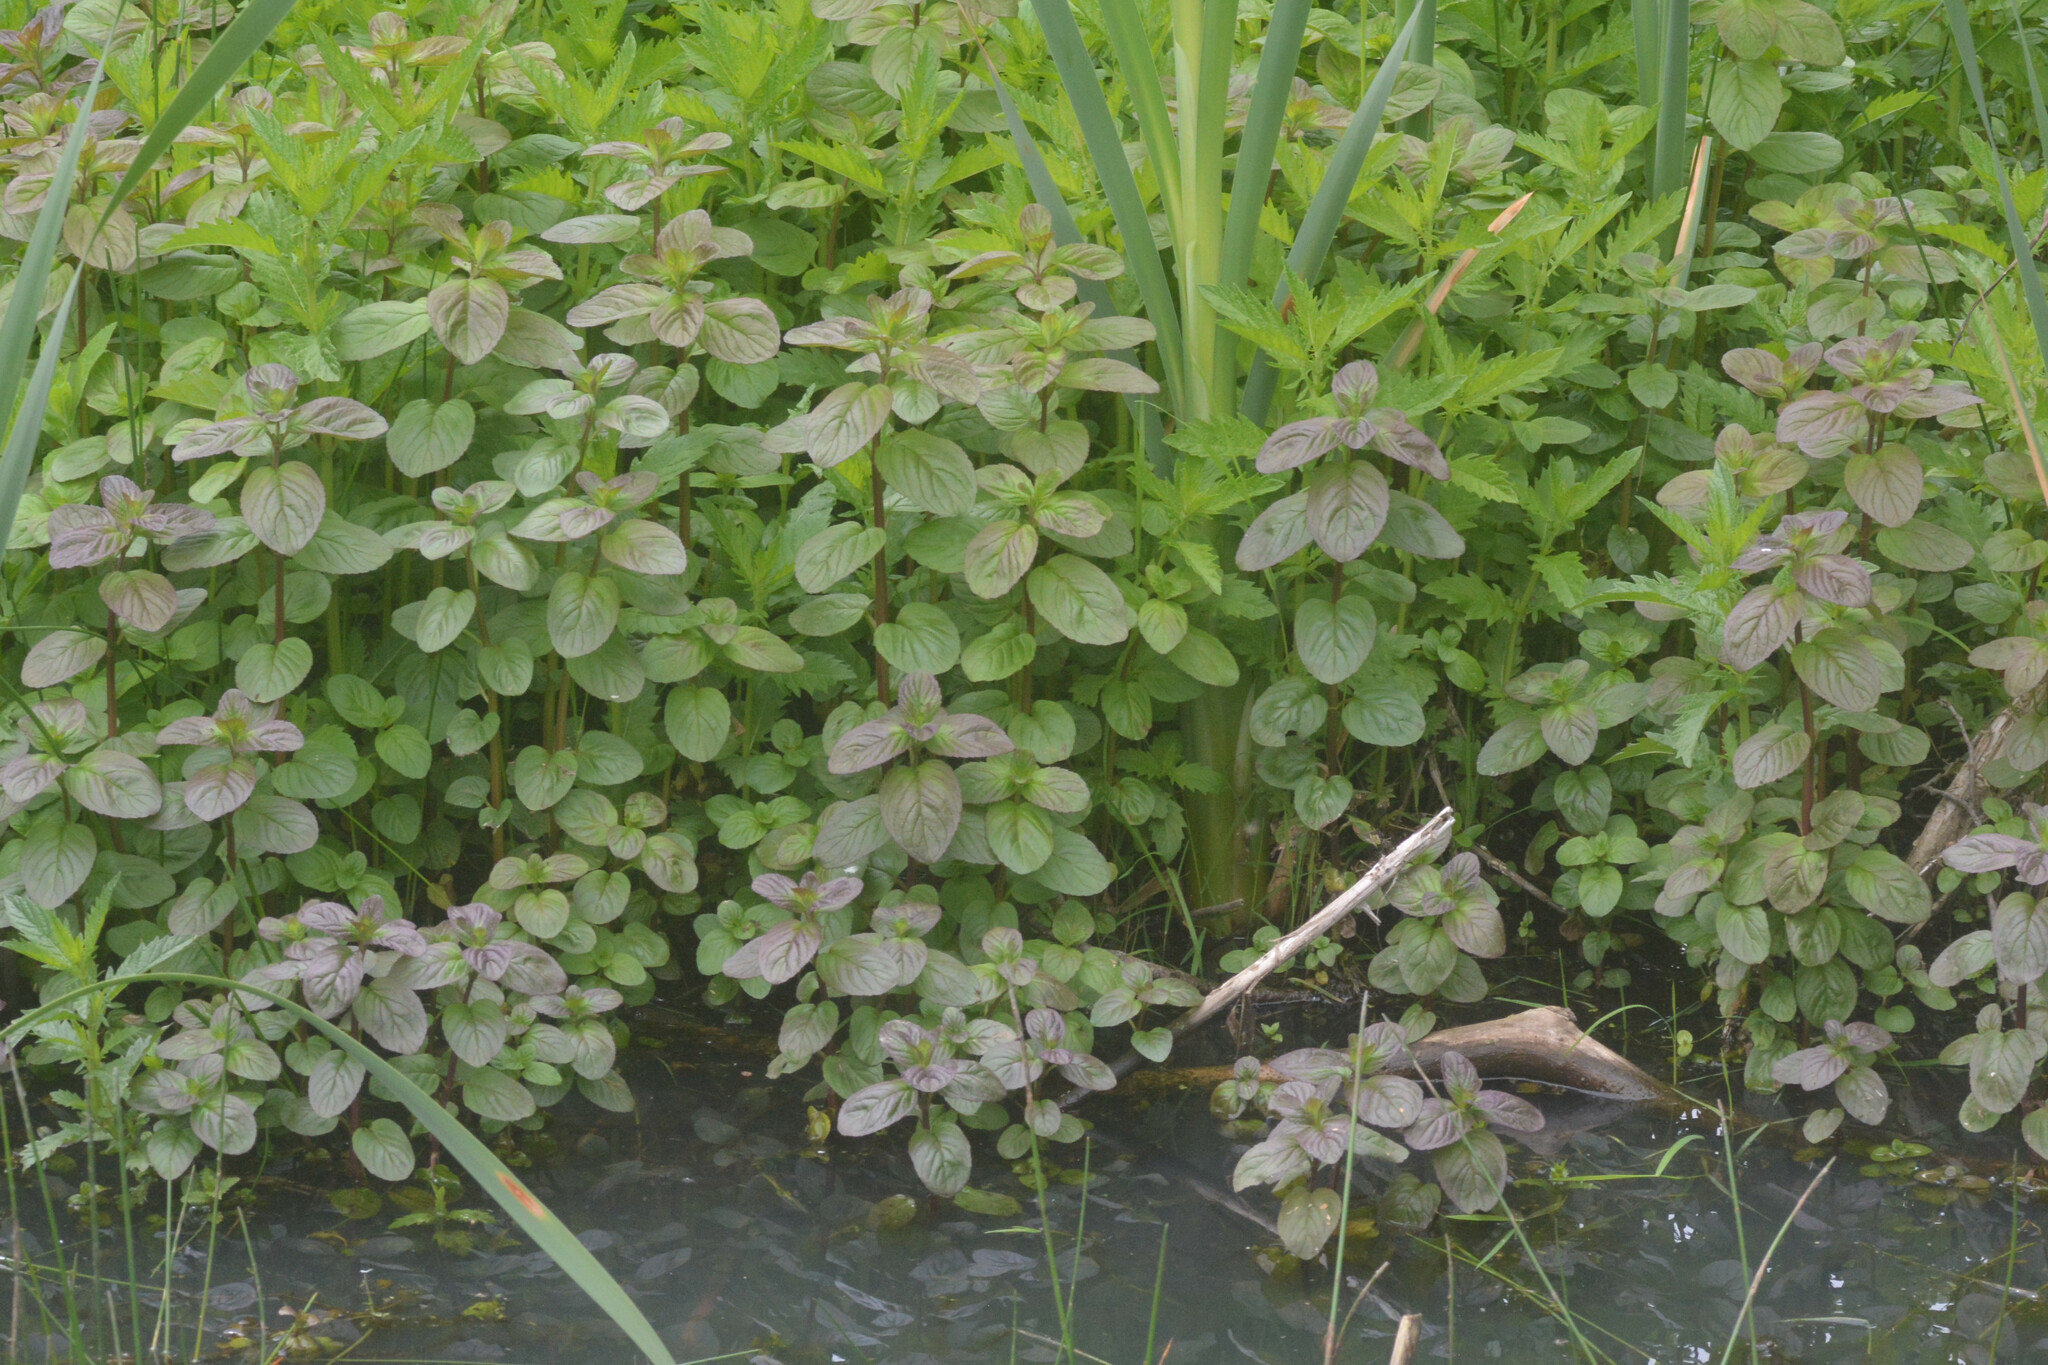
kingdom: Plantae
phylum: Tracheophyta
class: Magnoliopsida
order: Lamiales
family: Lamiaceae
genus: Mentha
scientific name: Mentha aquatica
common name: Water mint
